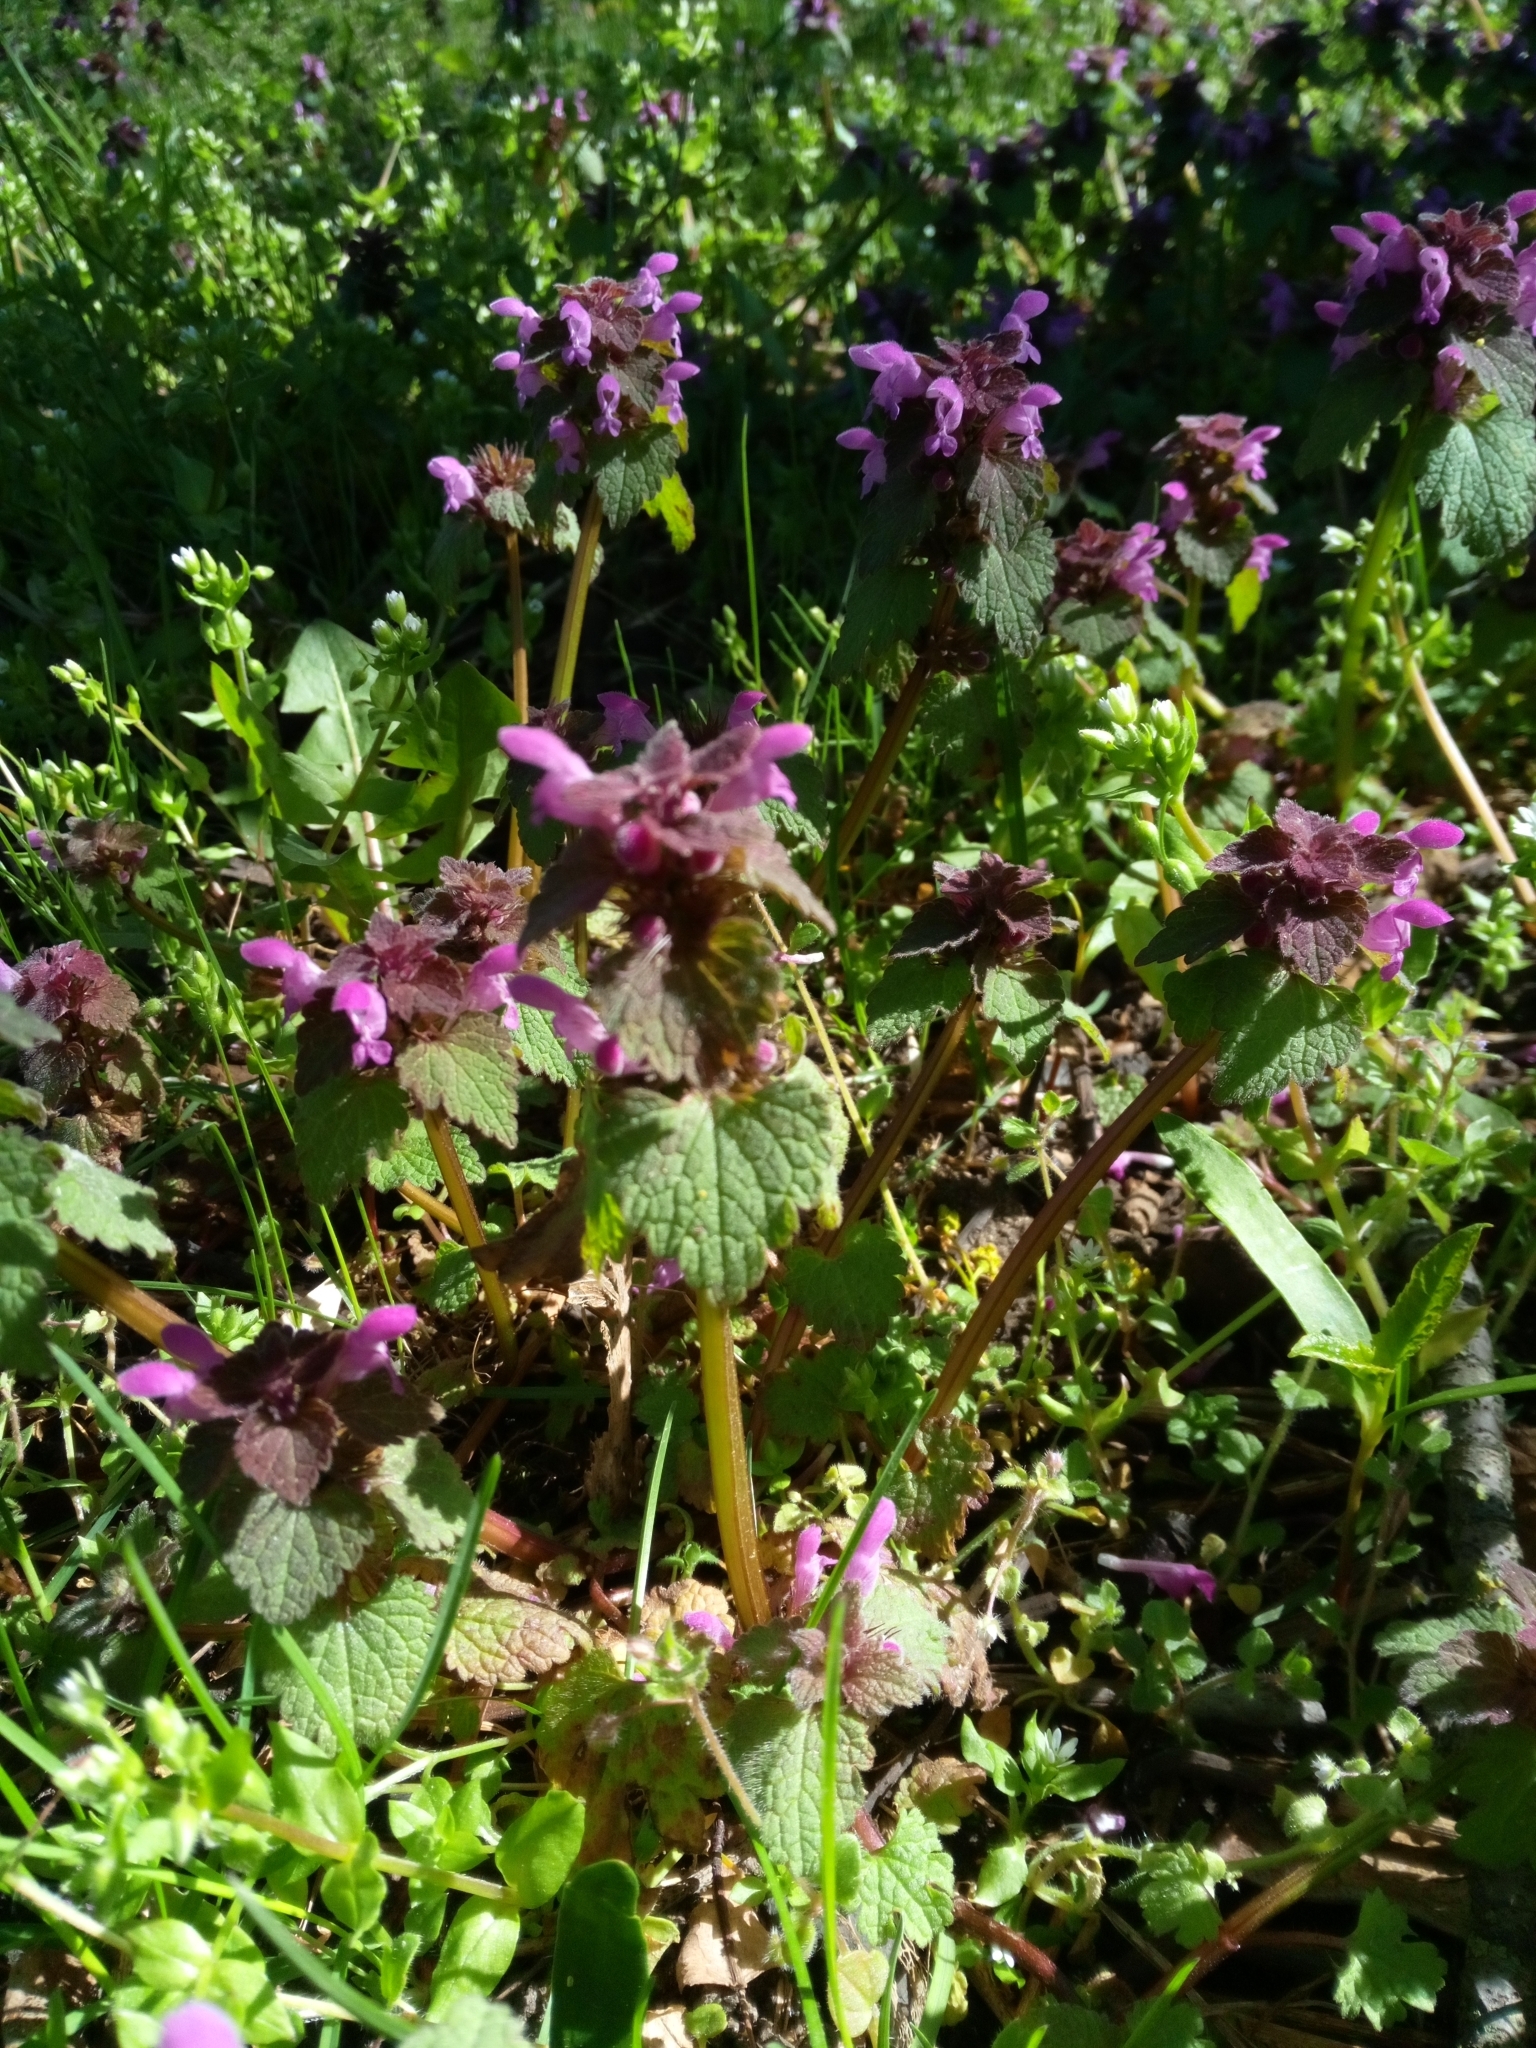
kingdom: Plantae
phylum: Tracheophyta
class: Magnoliopsida
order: Lamiales
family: Lamiaceae
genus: Lamium
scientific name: Lamium purpureum
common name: Red dead-nettle
